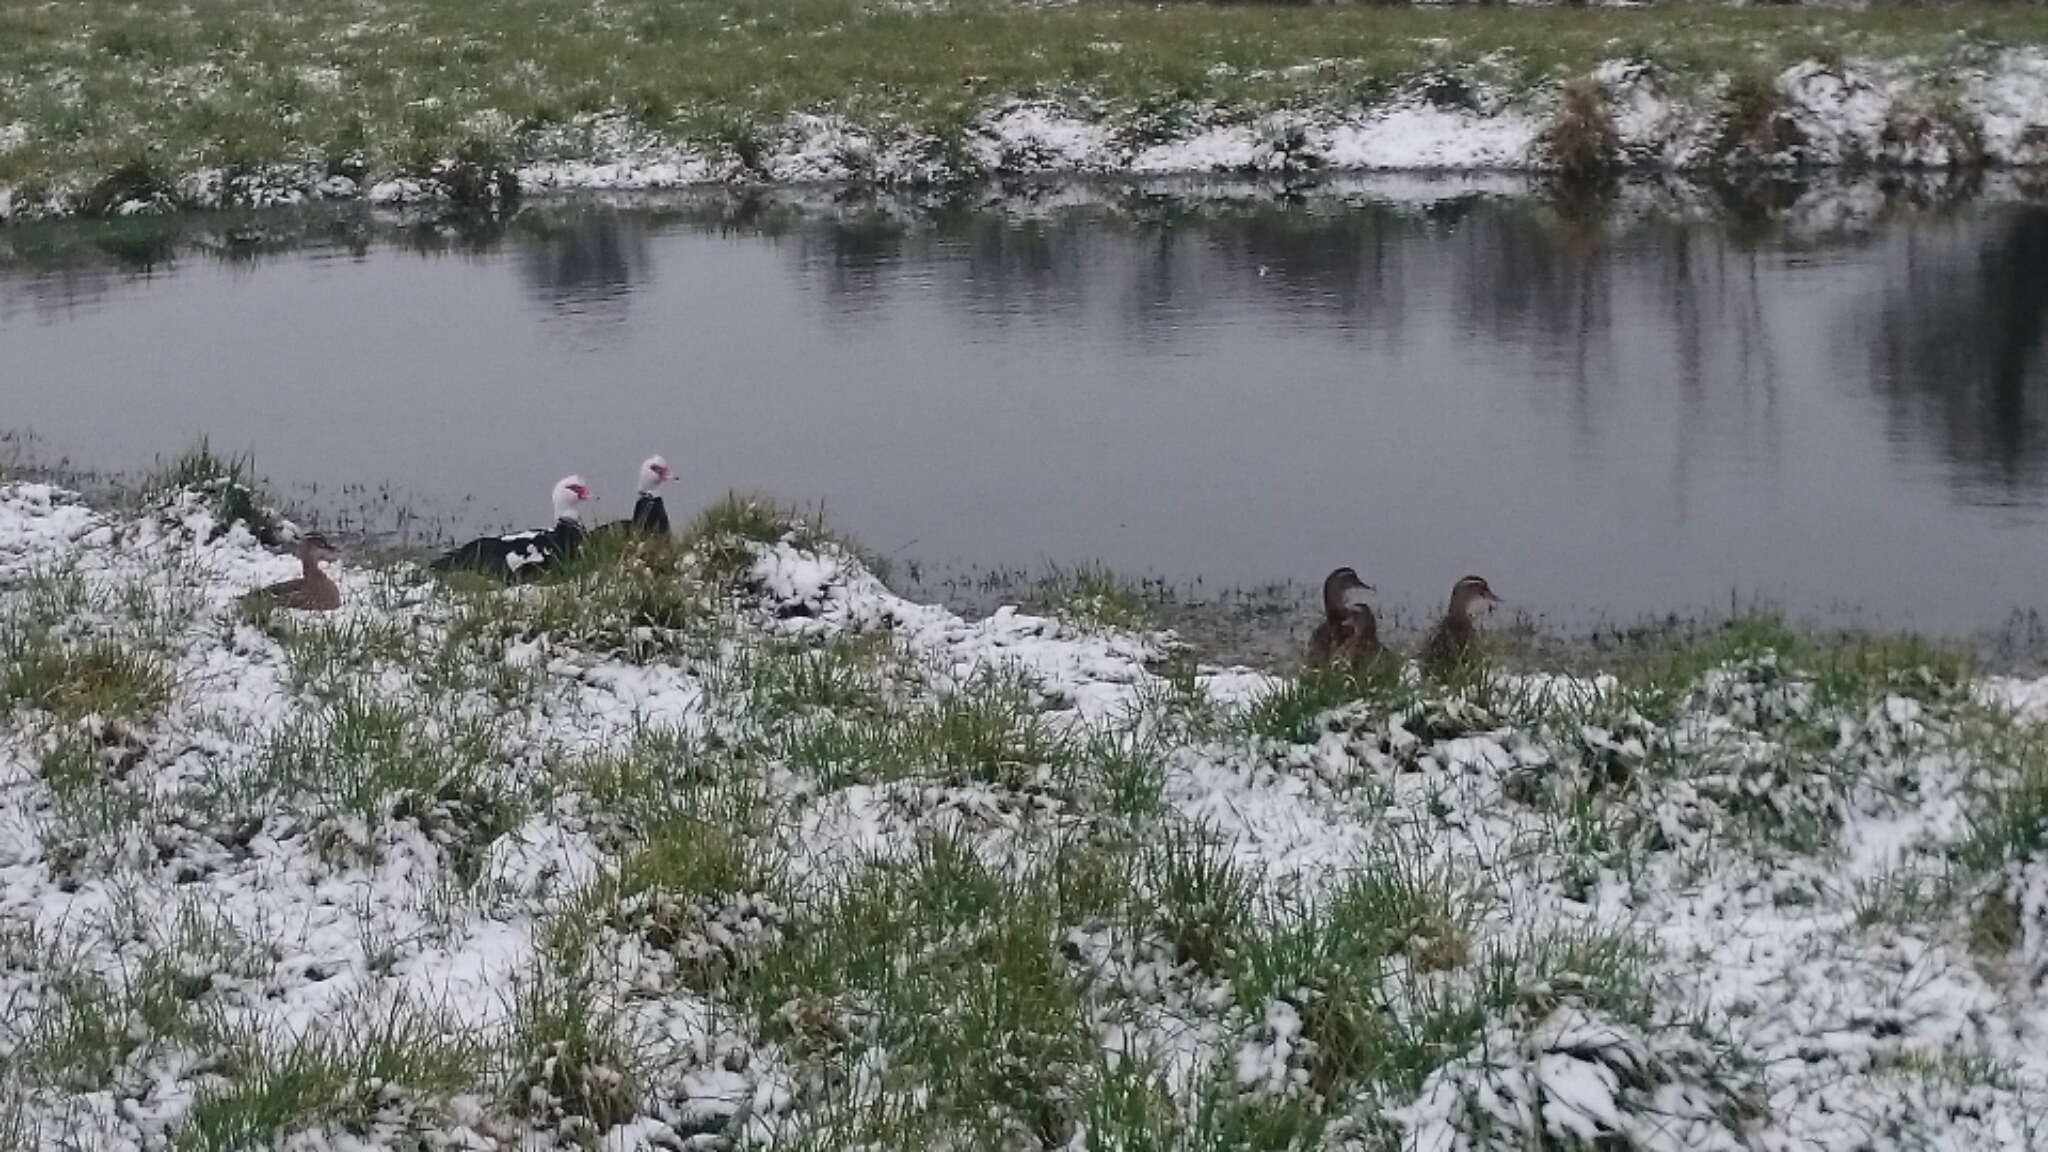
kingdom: Animalia
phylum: Chordata
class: Aves
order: Anseriformes
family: Anatidae
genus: Cairina
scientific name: Cairina moschata
